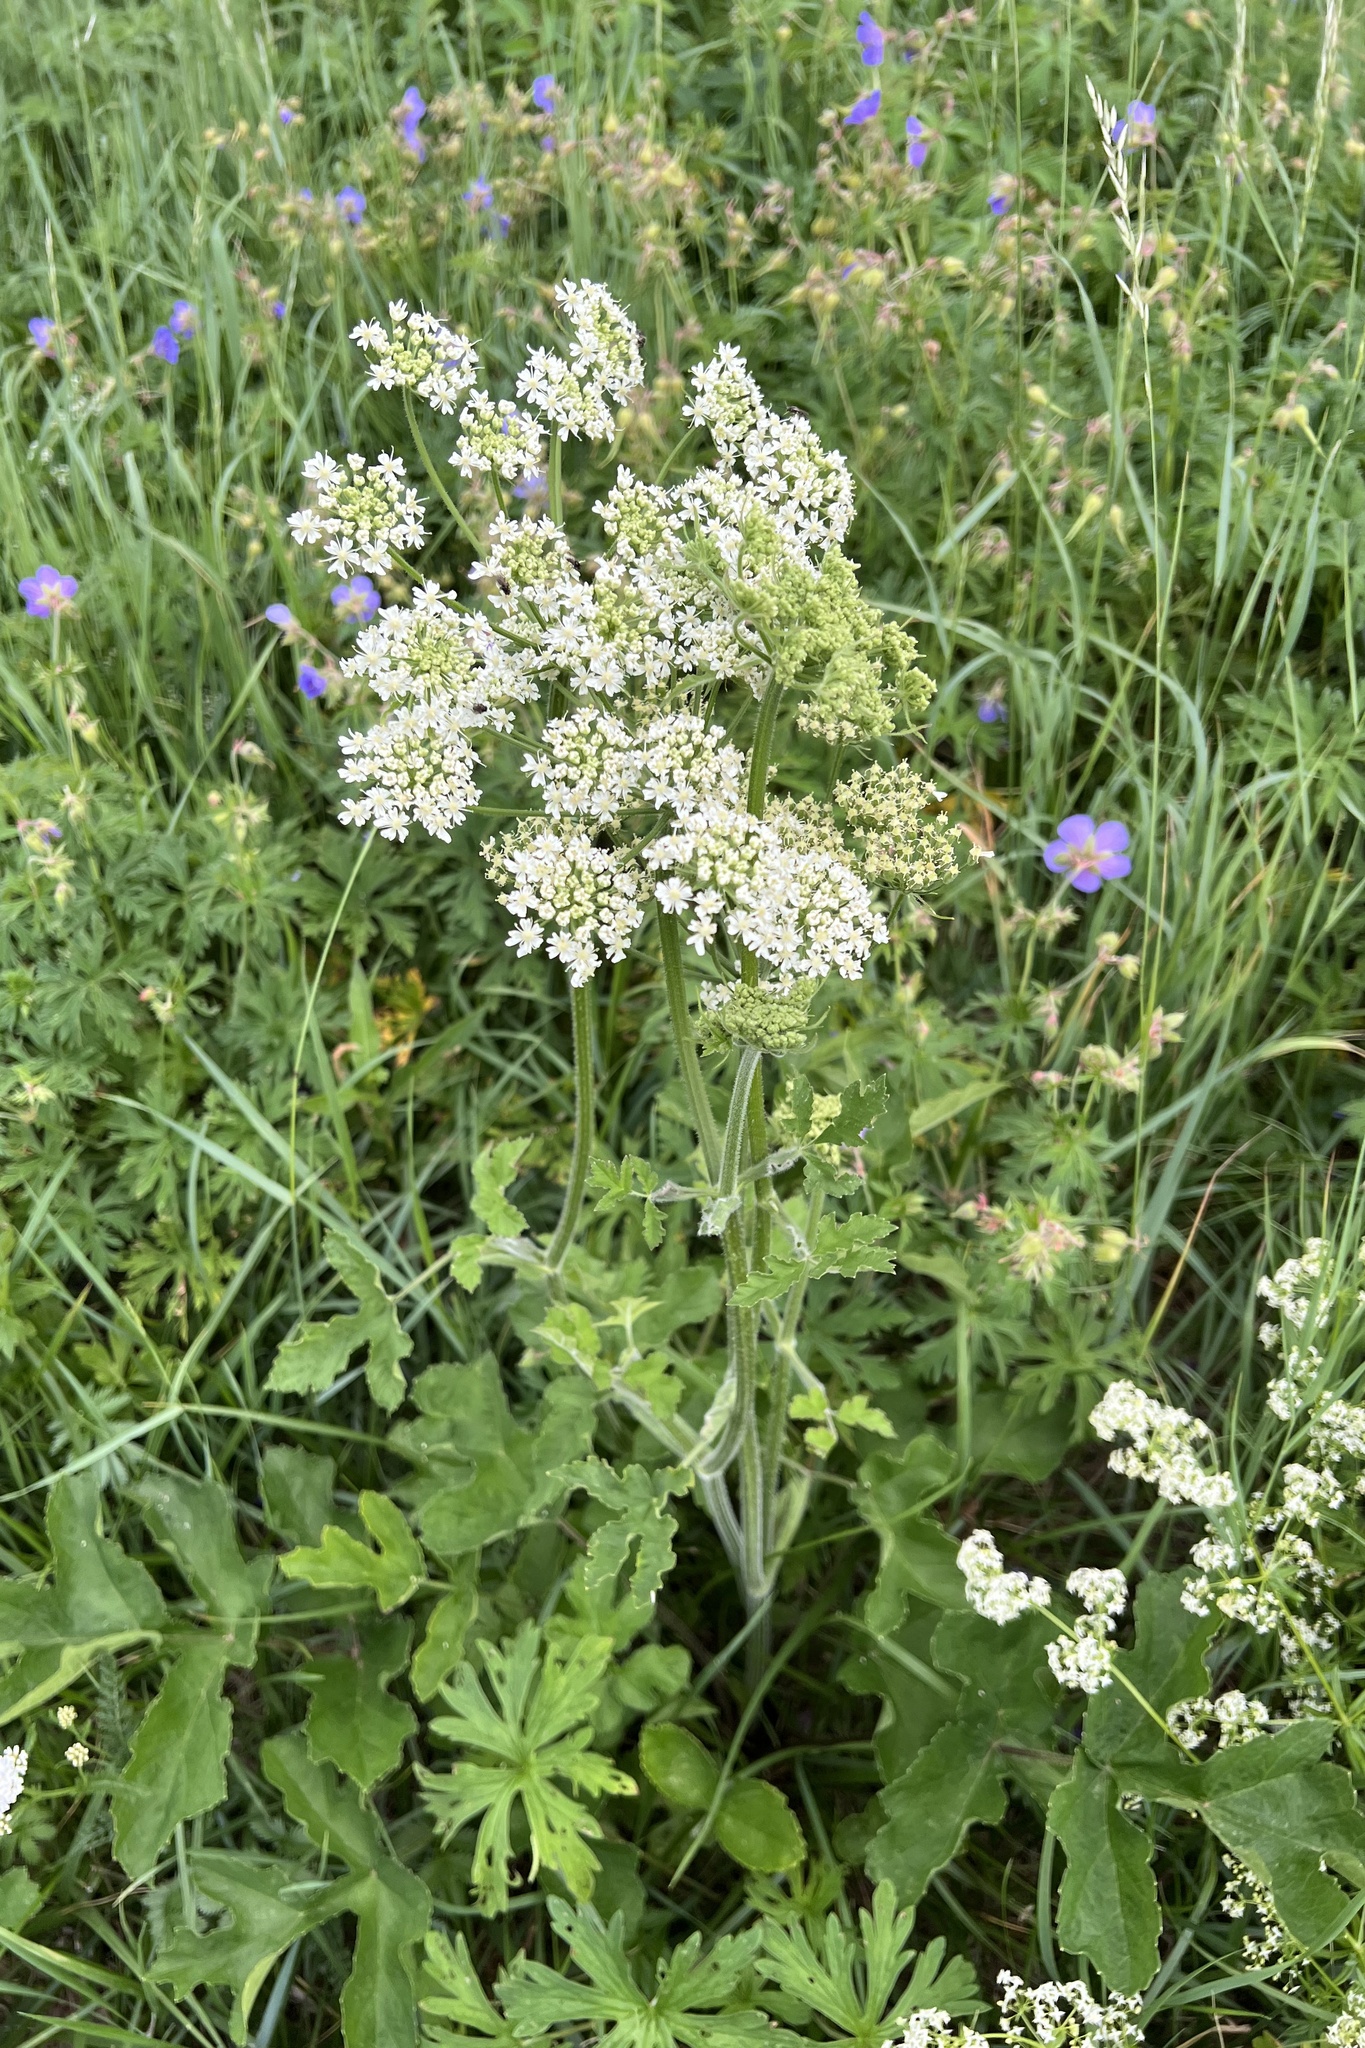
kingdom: Plantae
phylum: Tracheophyta
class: Magnoliopsida
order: Apiales
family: Apiaceae
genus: Heracleum
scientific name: Heracleum sphondylium
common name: Hogweed
